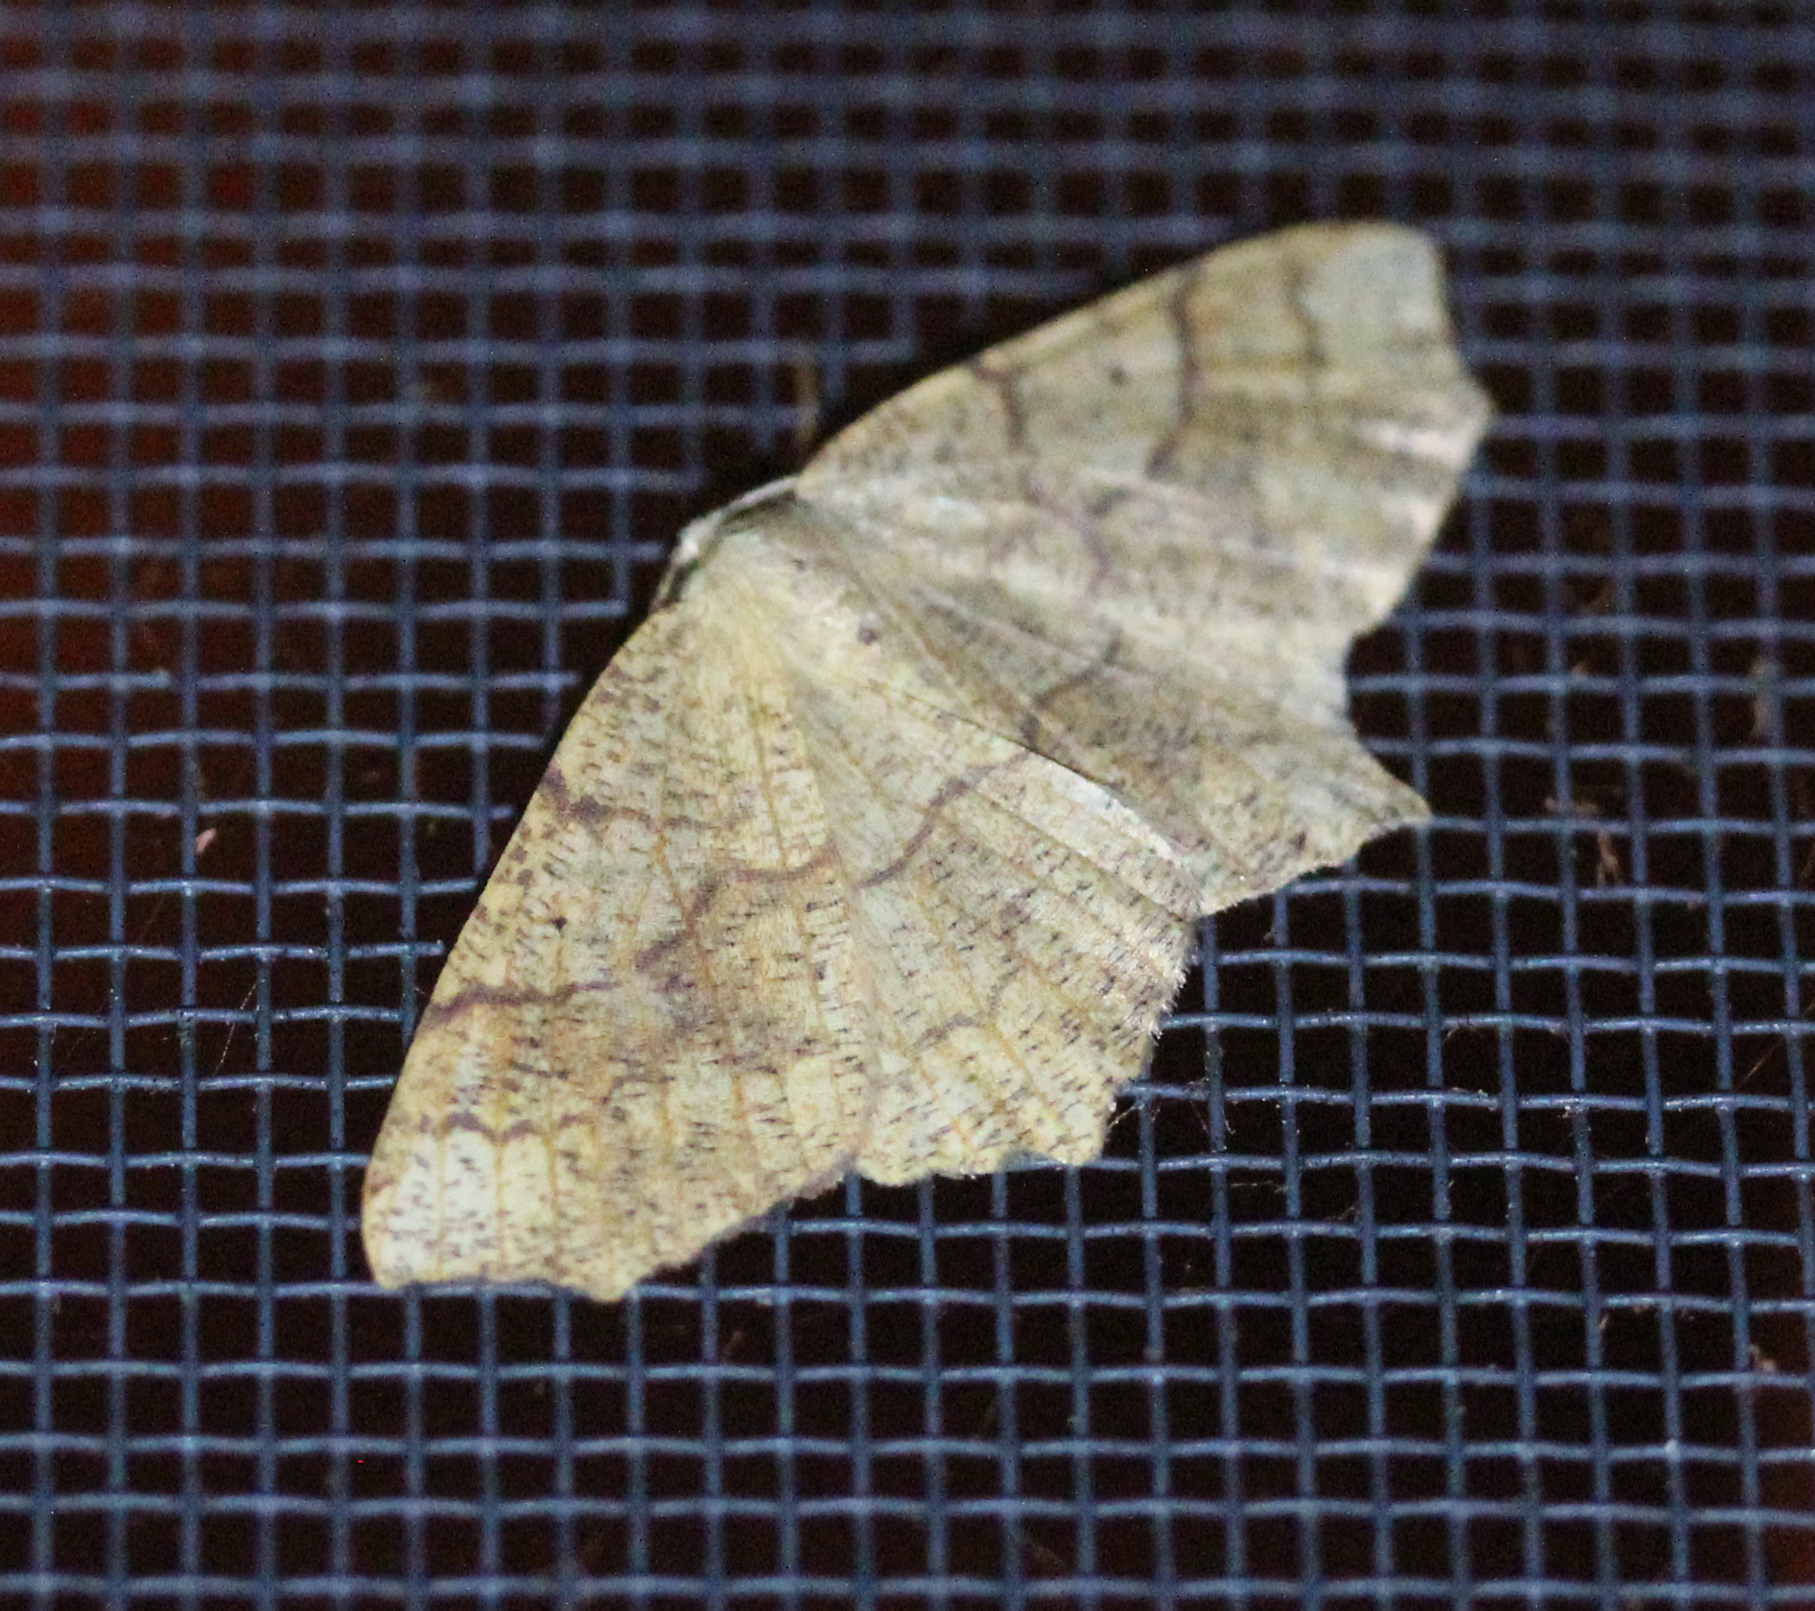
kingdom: Animalia
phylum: Arthropoda
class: Insecta
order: Lepidoptera
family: Geometridae
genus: Besma
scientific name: Besma quercivoraria
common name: Oak besma
